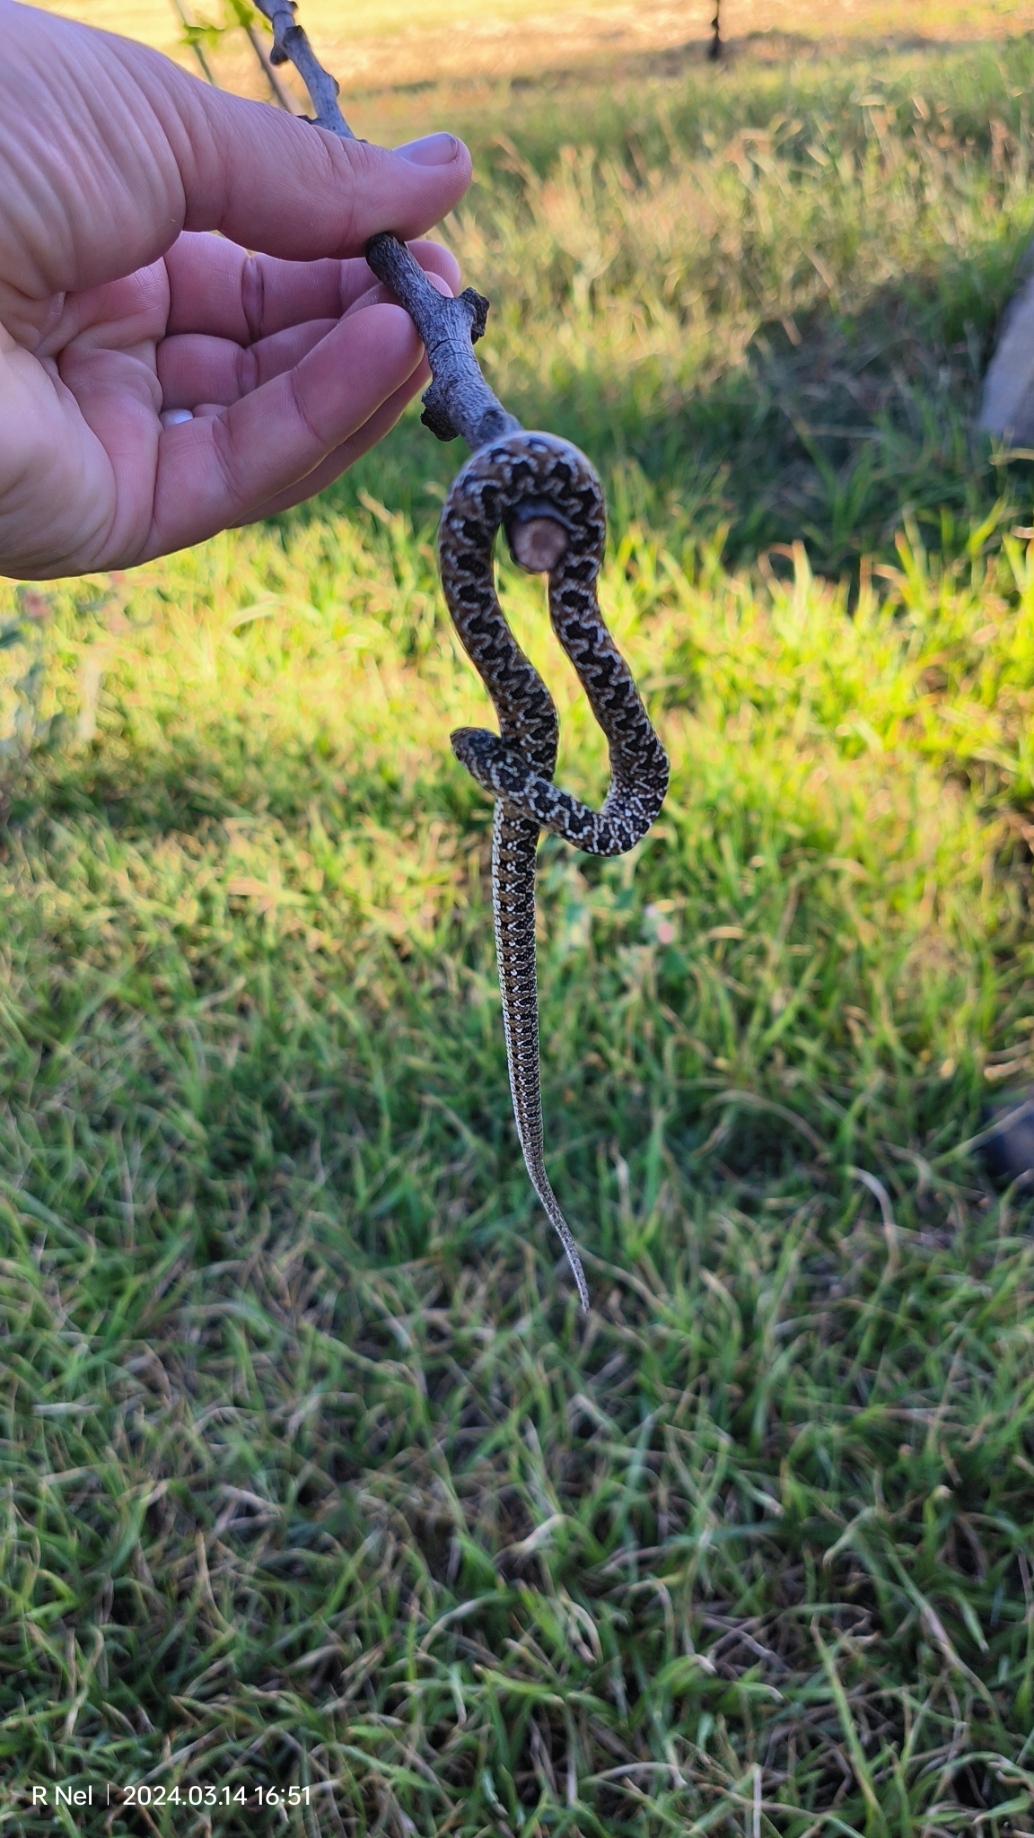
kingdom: Animalia
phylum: Chordata
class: Squamata
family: Pseudaspididae
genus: Pseudaspis
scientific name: Pseudaspis cana
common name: Mole snake
